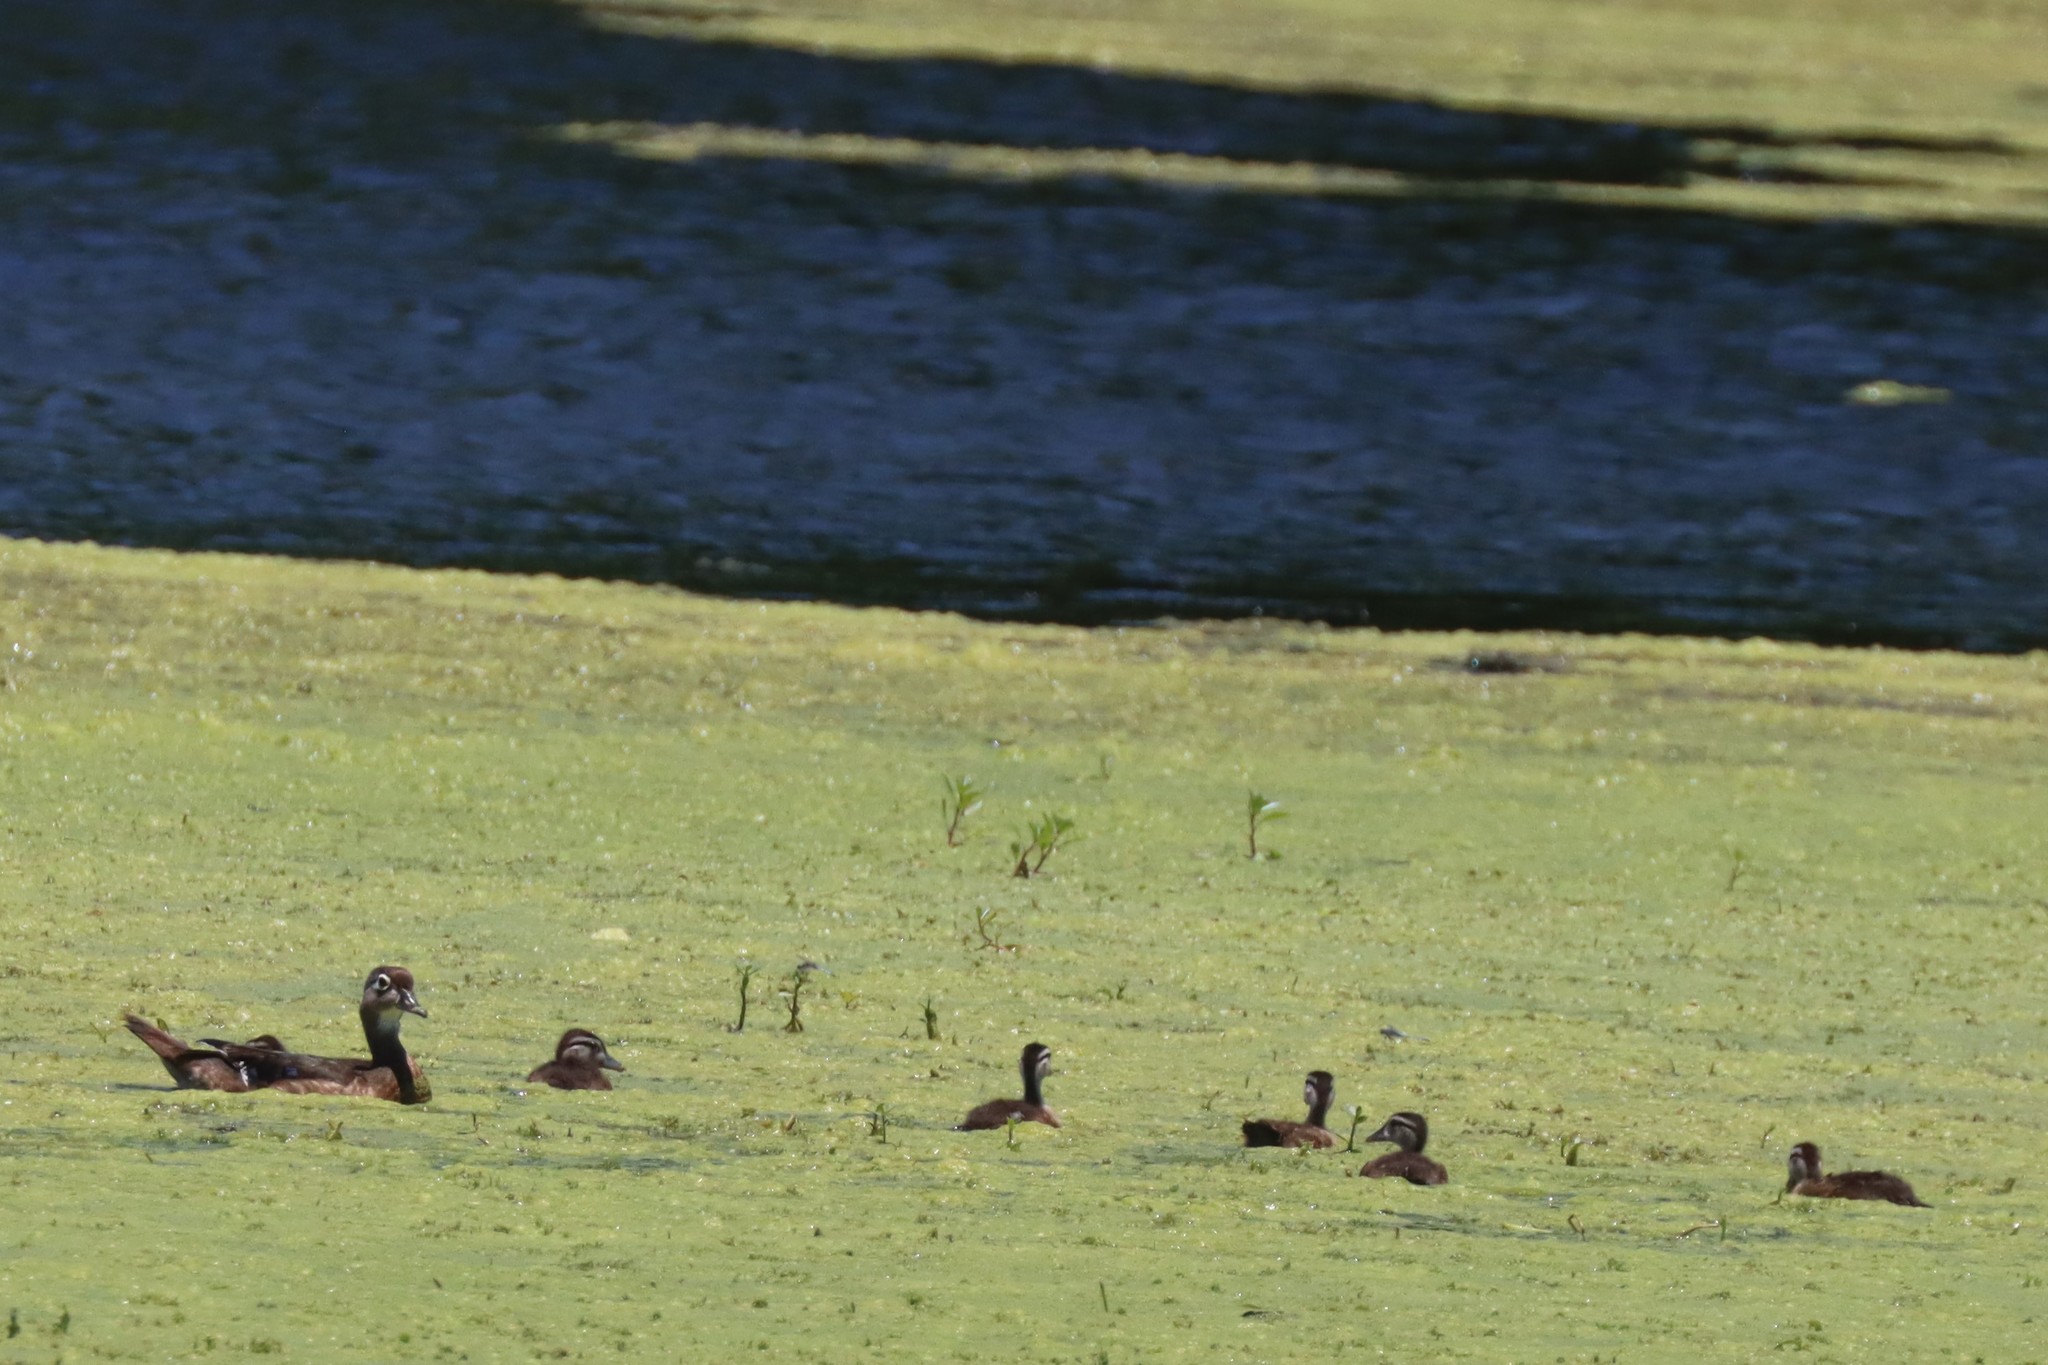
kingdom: Animalia
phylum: Chordata
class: Aves
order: Anseriformes
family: Anatidae
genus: Aix
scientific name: Aix sponsa
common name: Wood duck
